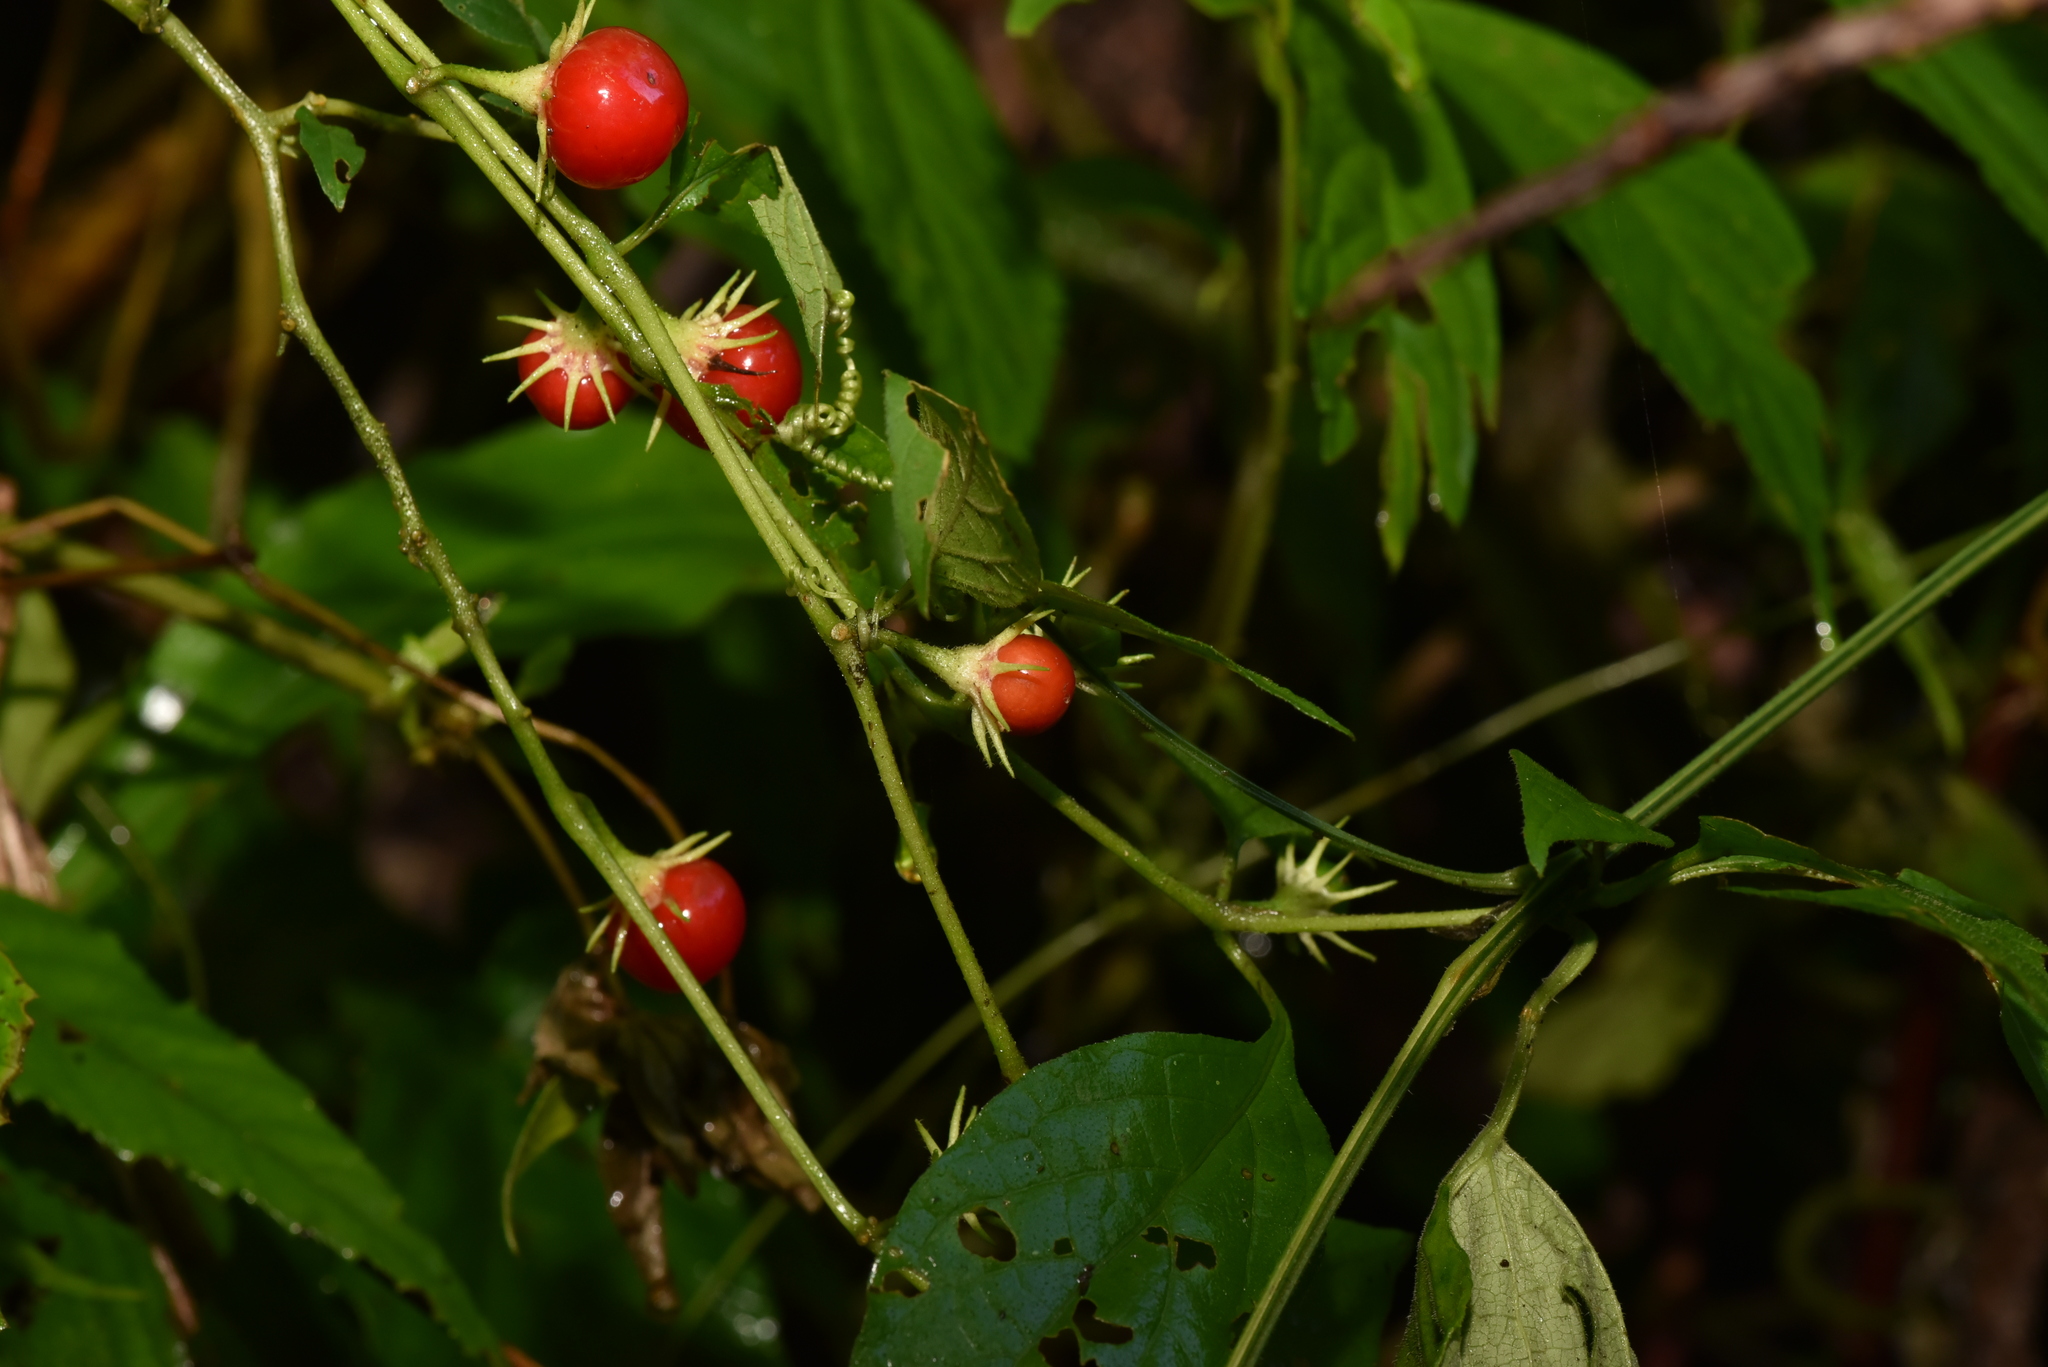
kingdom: Plantae
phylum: Tracheophyta
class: Magnoliopsida
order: Solanales
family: Solanaceae
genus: Lycianthes
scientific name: Lycianthes biflora
